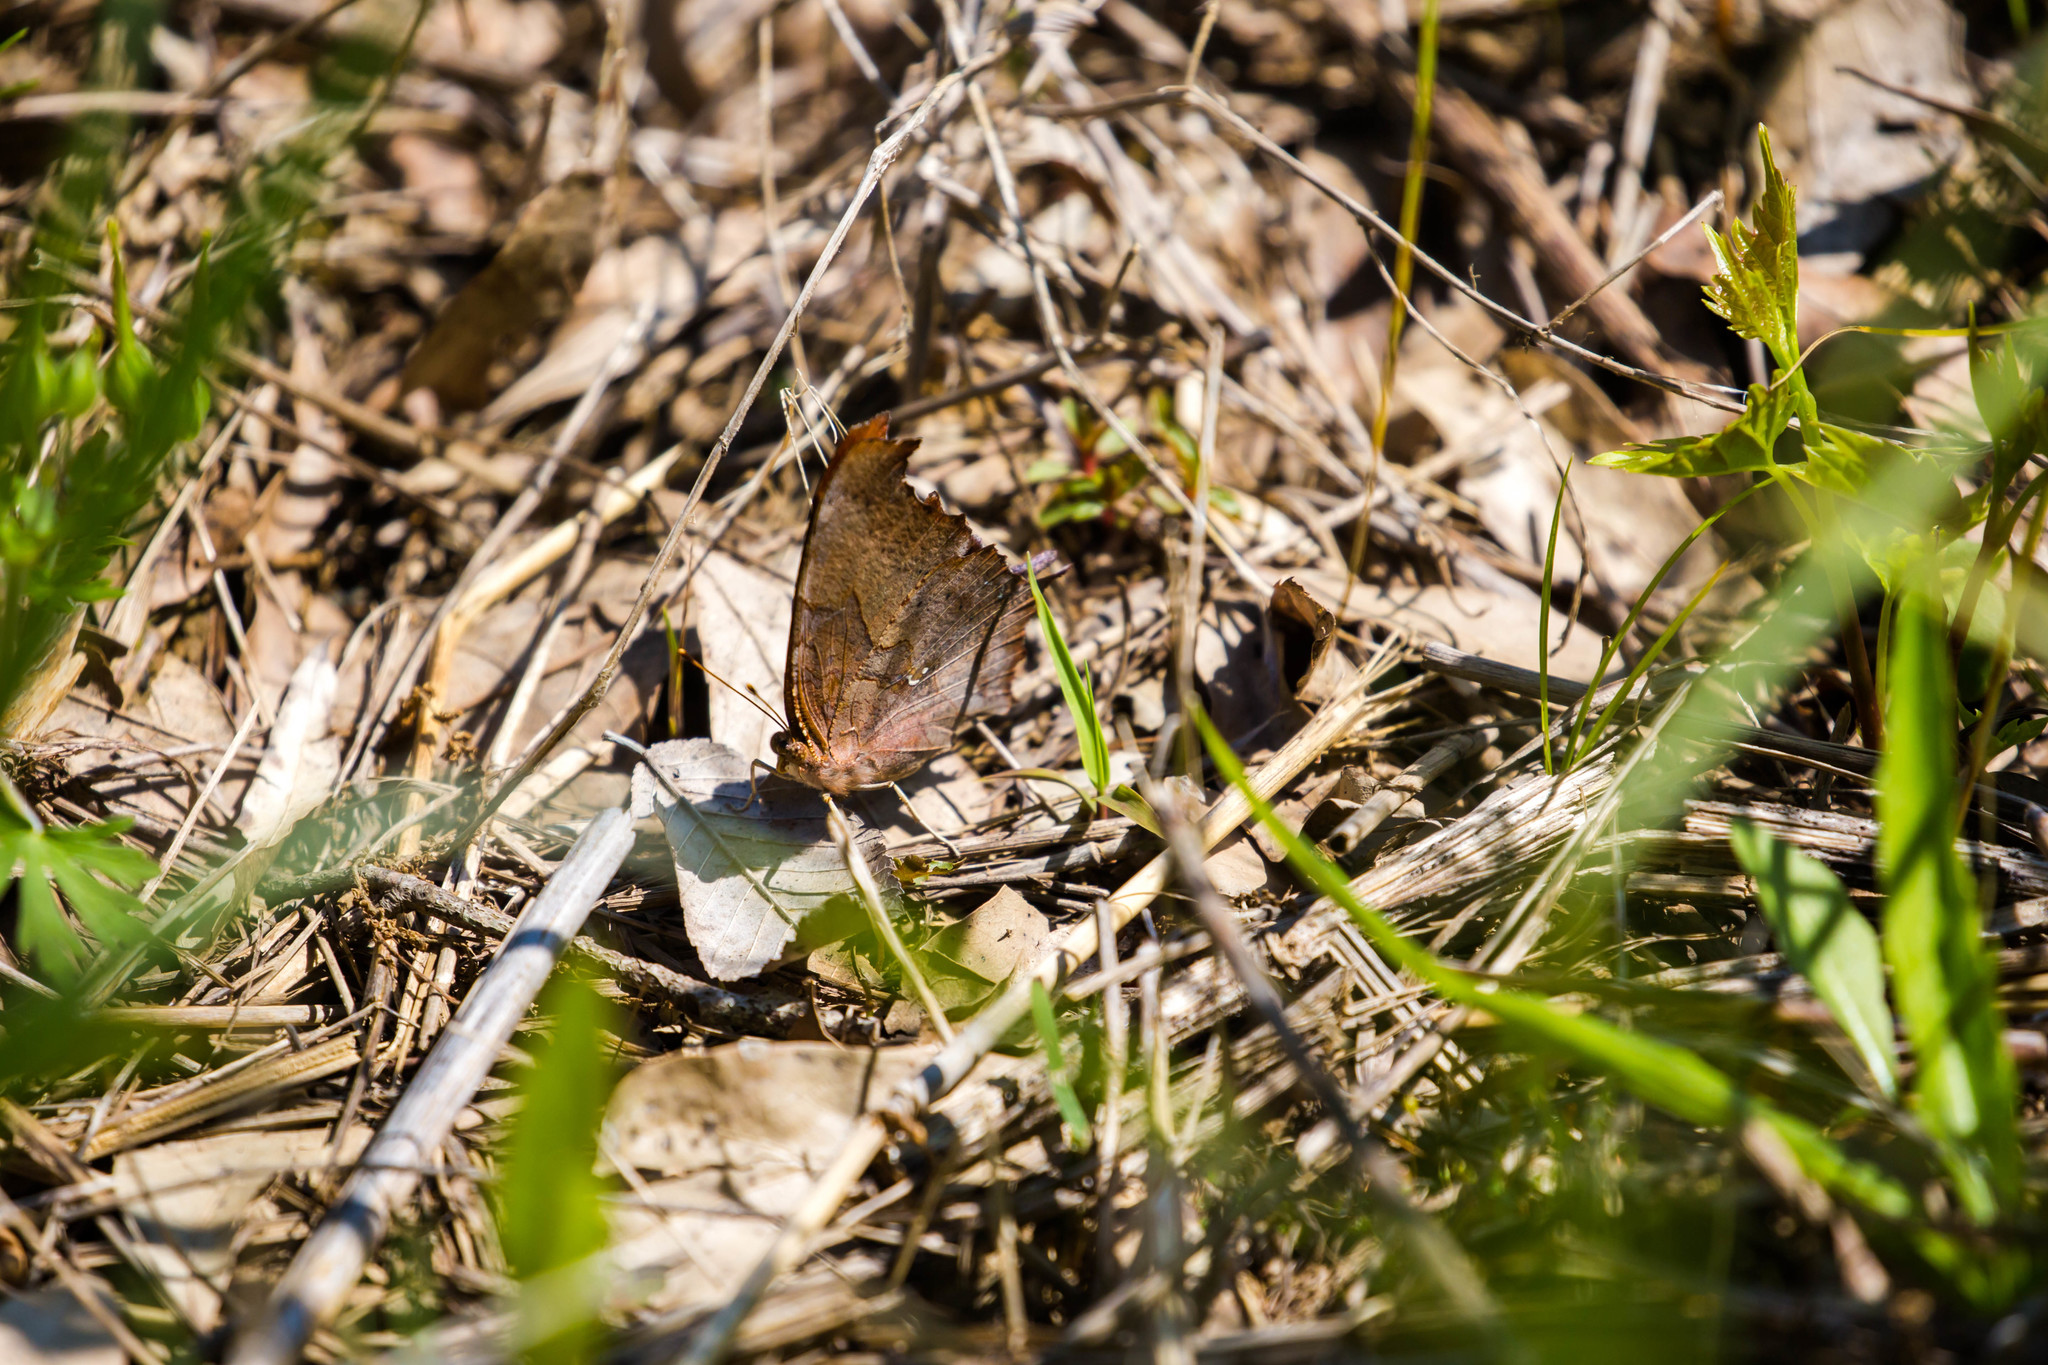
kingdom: Animalia
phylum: Arthropoda
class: Insecta
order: Lepidoptera
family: Nymphalidae
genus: Polygonia
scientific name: Polygonia interrogationis
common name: Question mark
